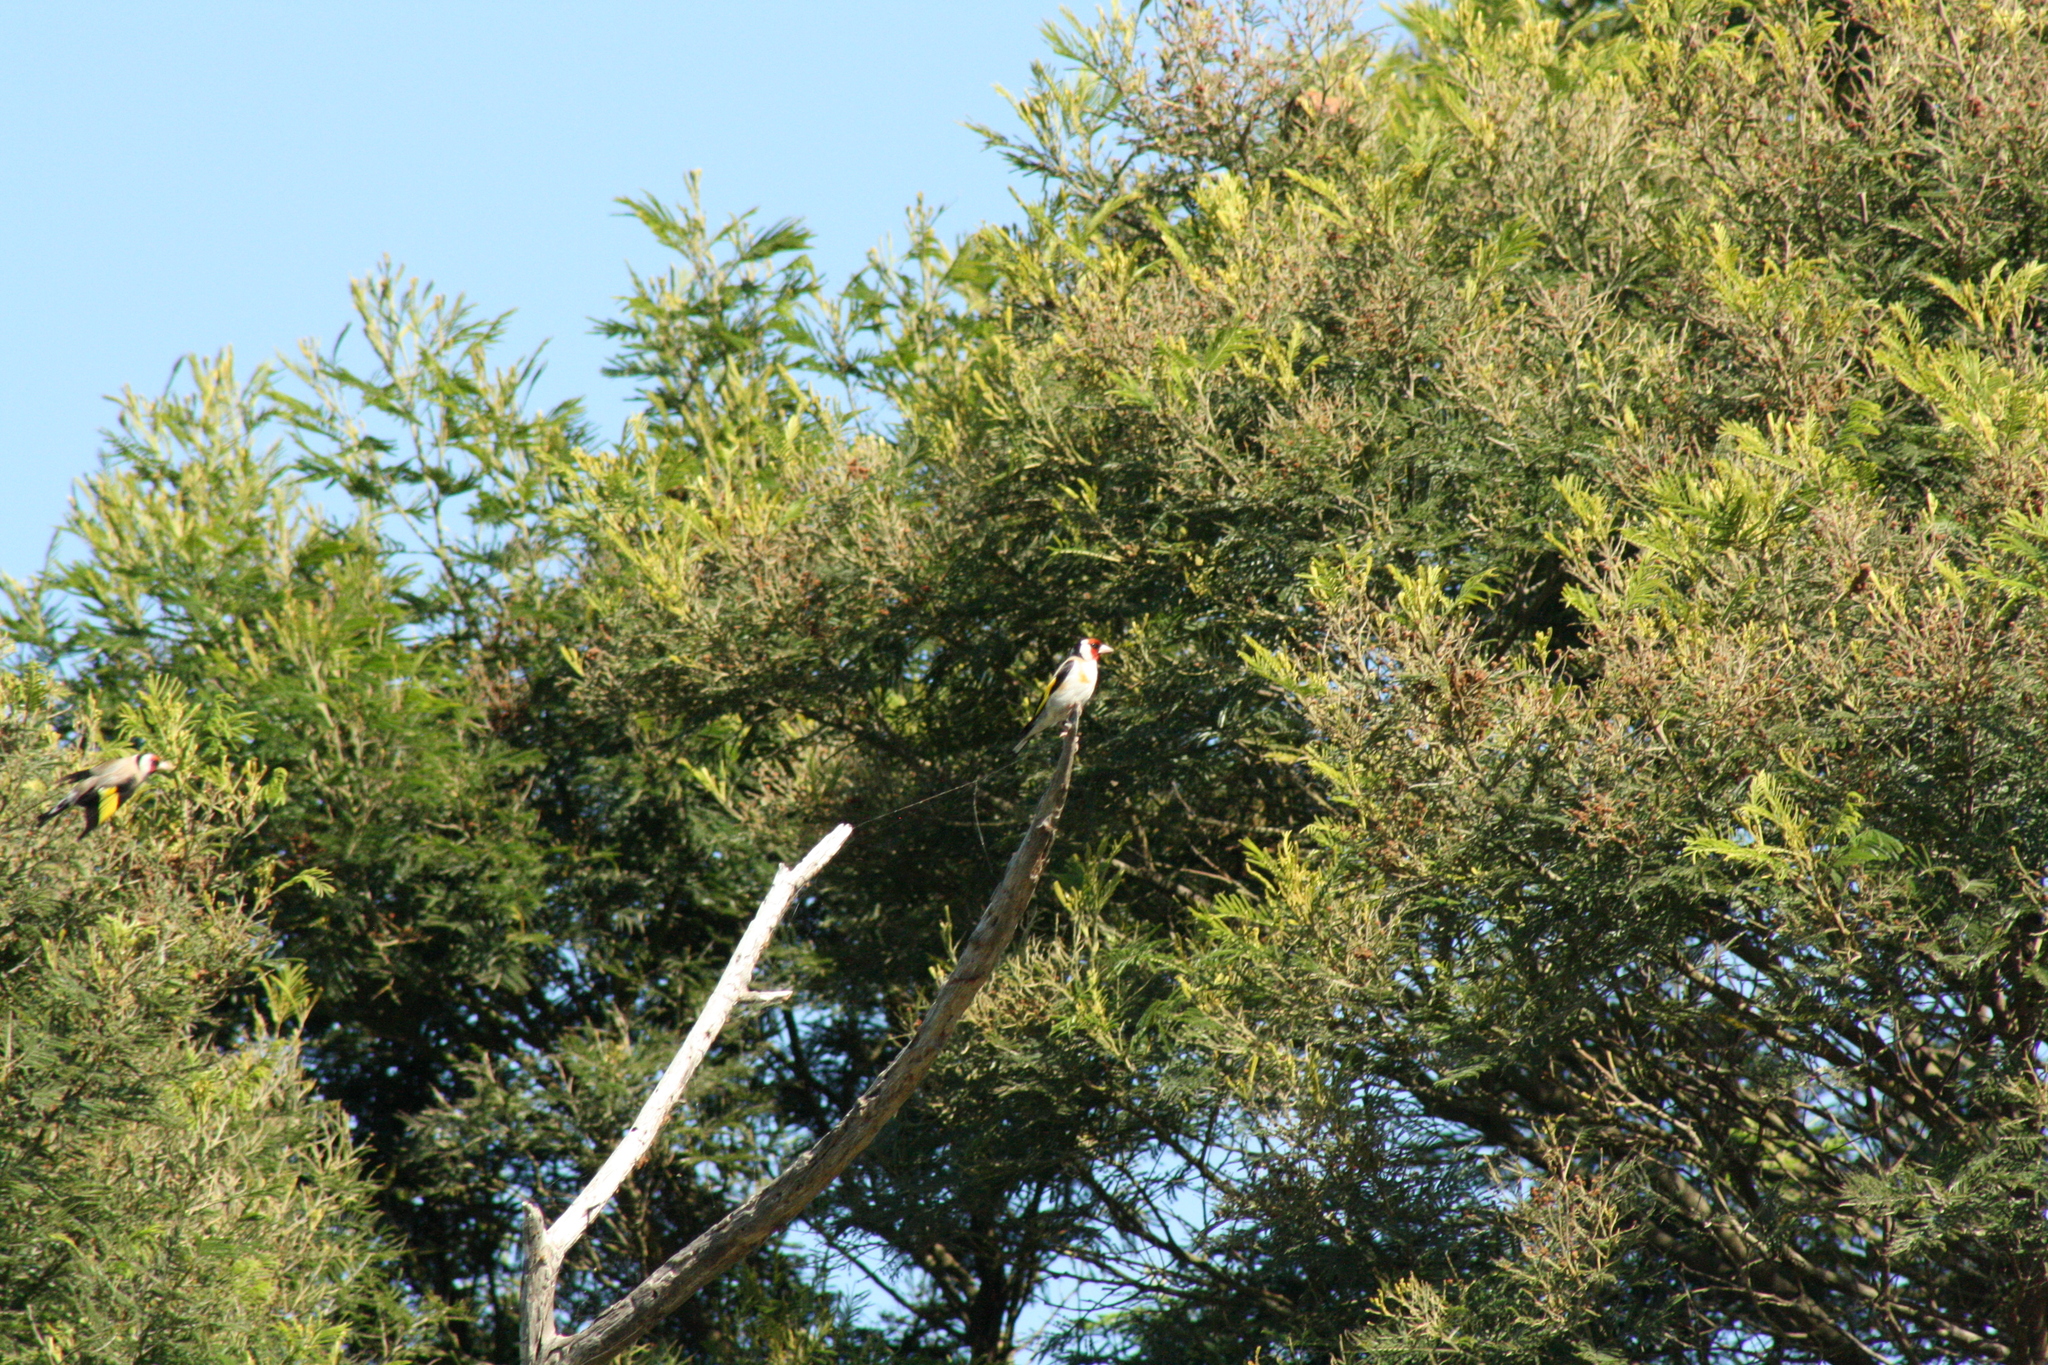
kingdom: Animalia
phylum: Chordata
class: Aves
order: Passeriformes
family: Fringillidae
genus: Carduelis
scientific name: Carduelis carduelis
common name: European goldfinch
